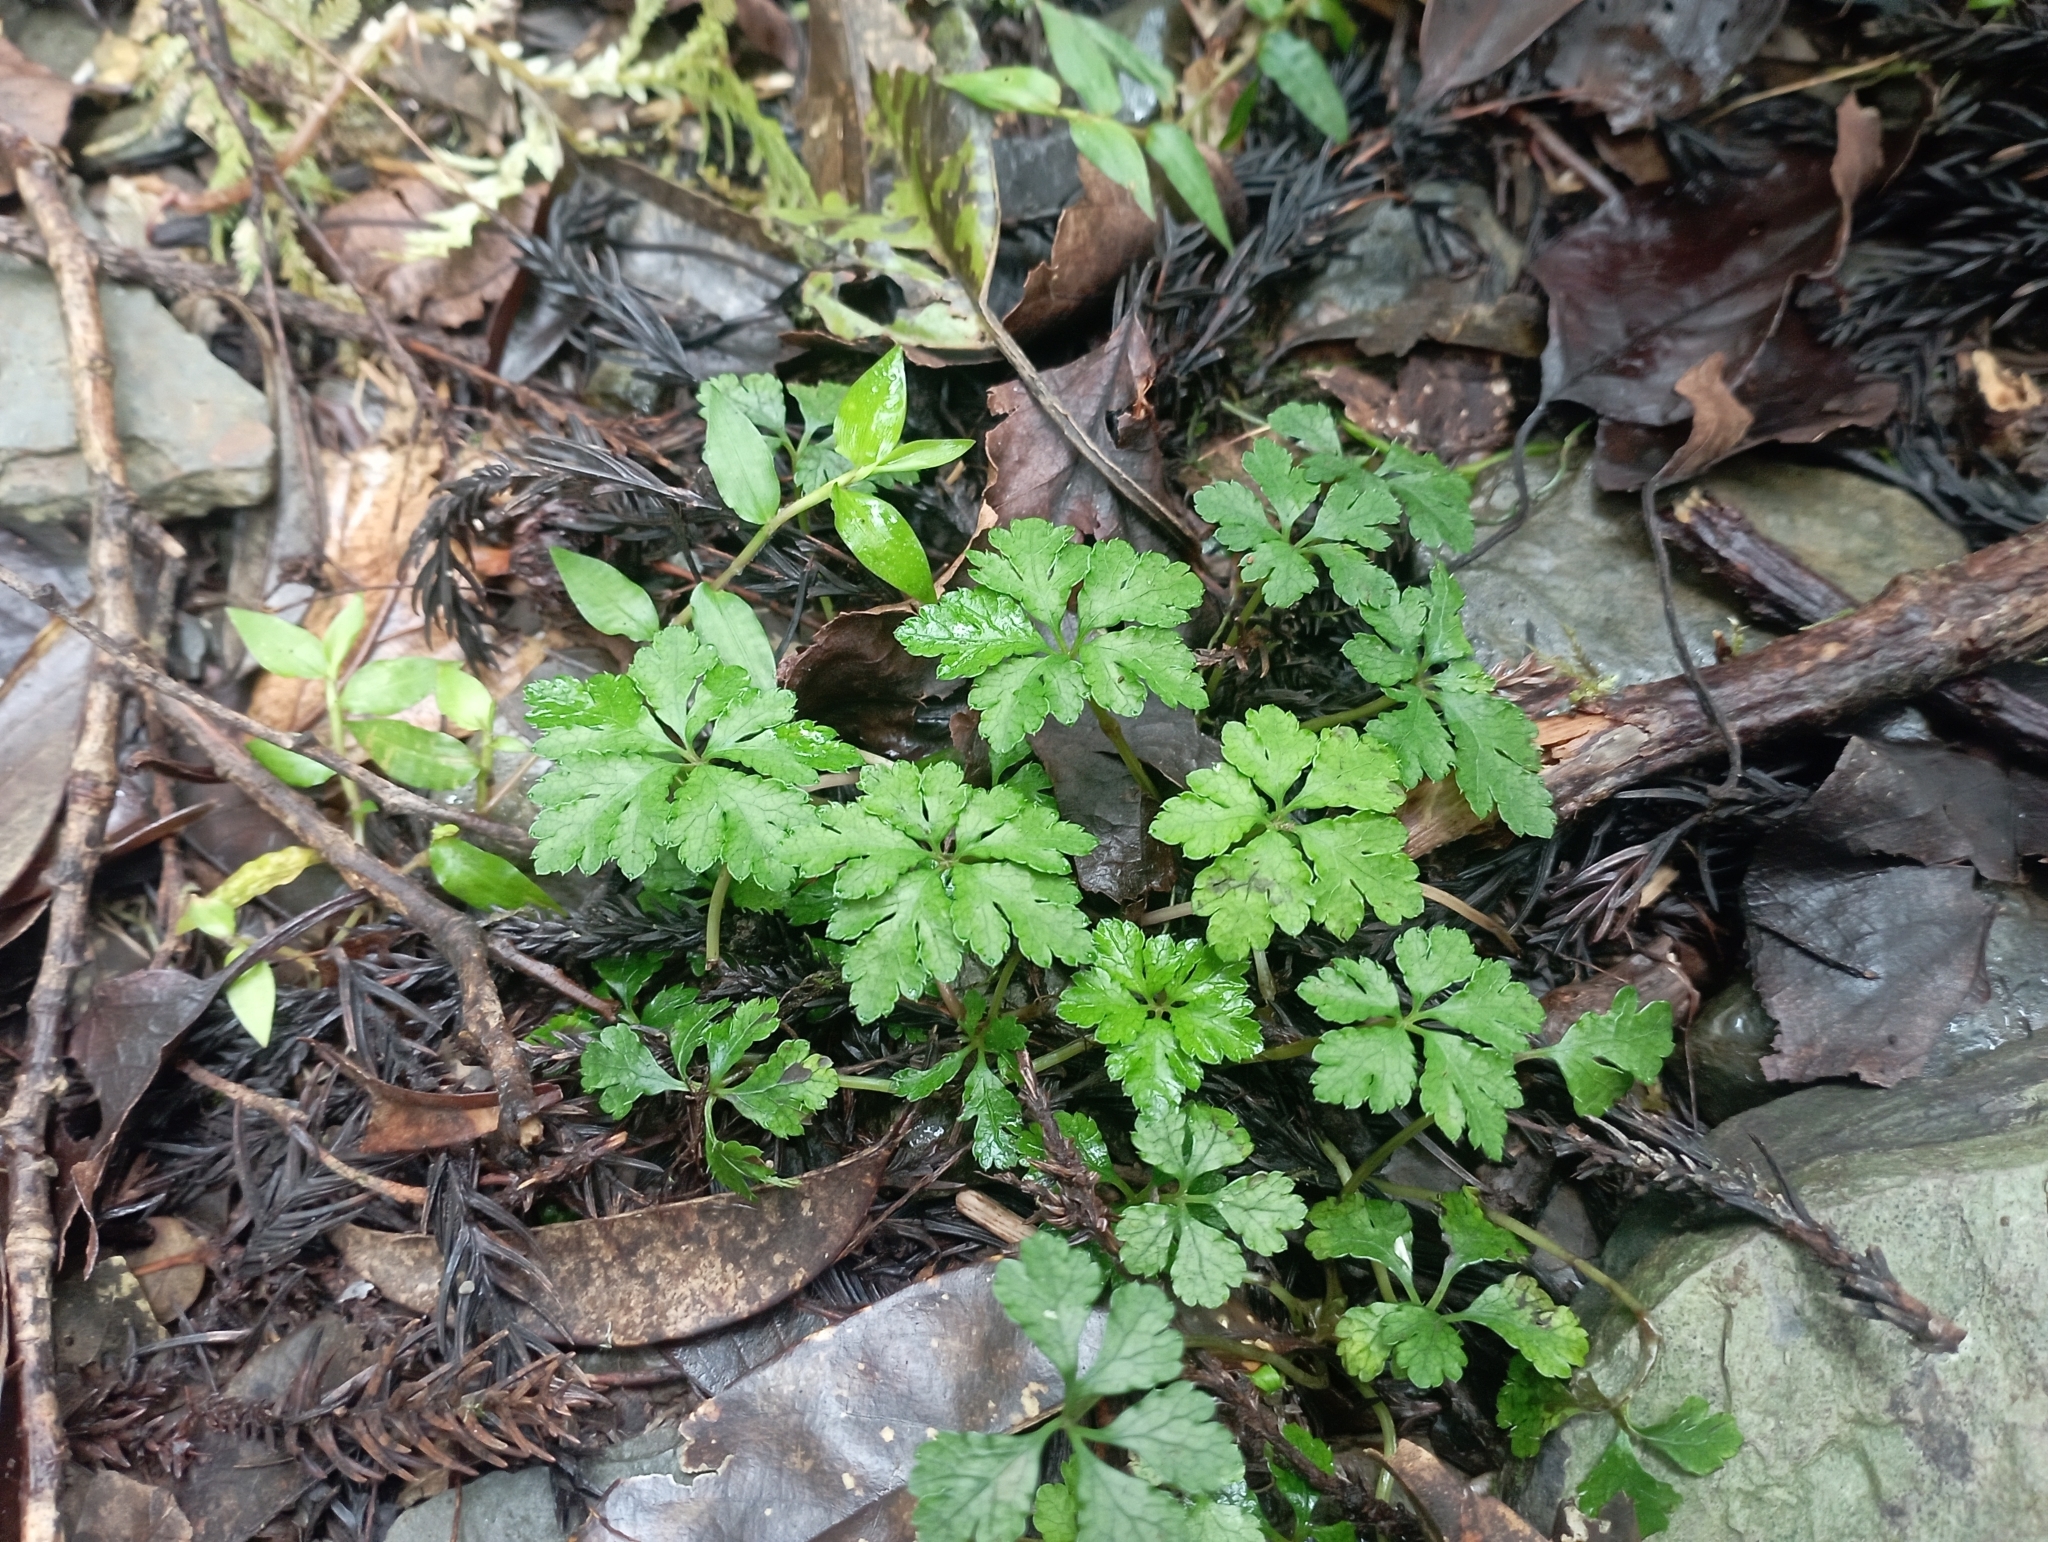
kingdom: Plantae
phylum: Tracheophyta
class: Magnoliopsida
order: Apiales
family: Apiaceae
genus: Sanicula
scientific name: Sanicula petagnioides
